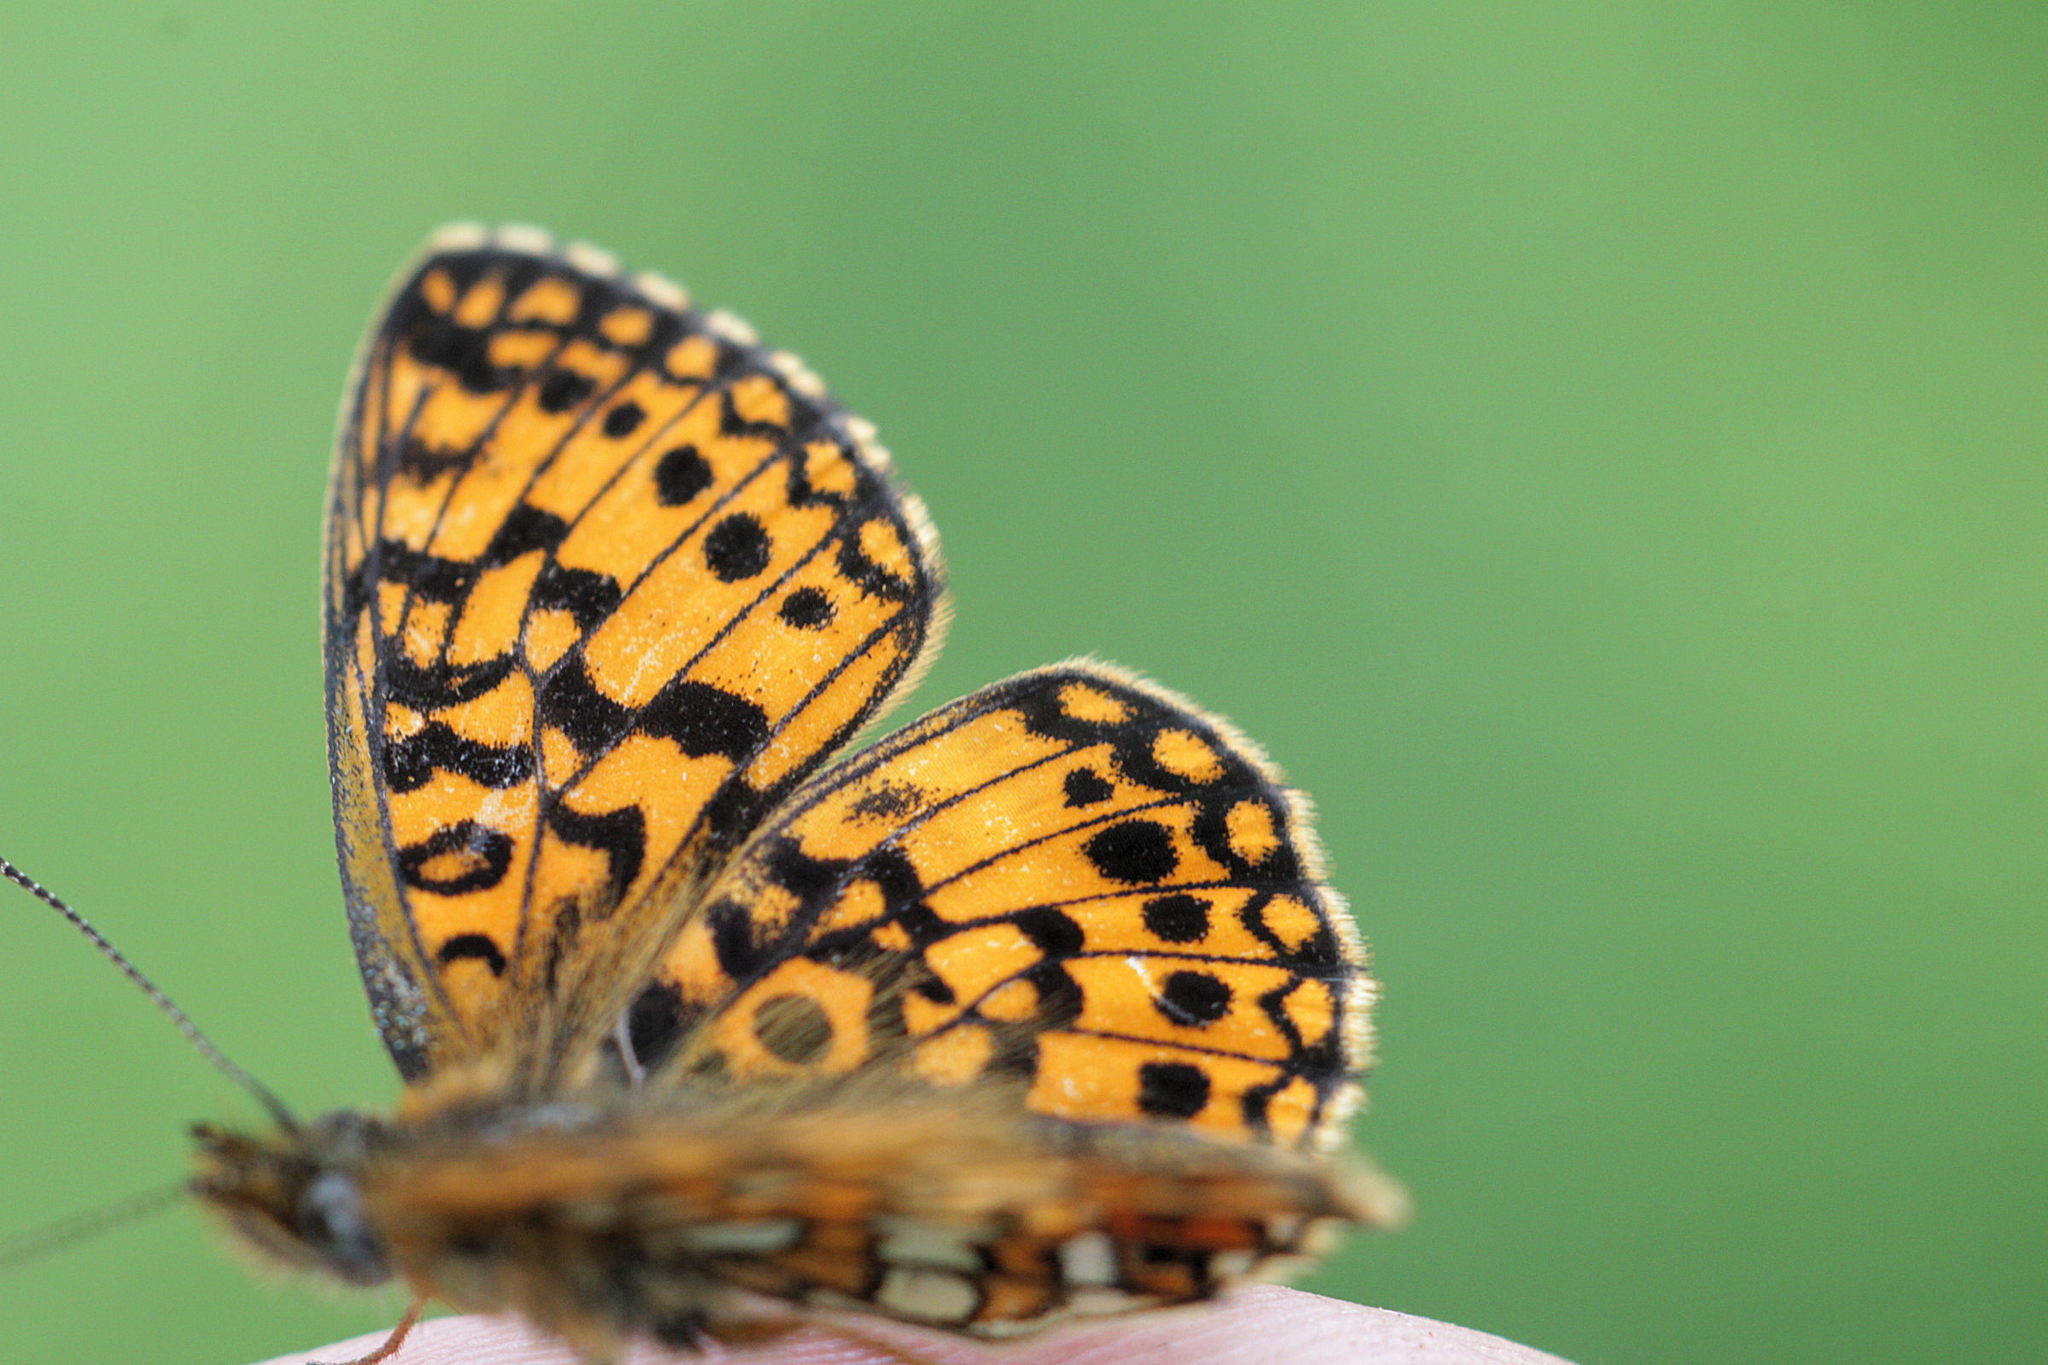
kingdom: Animalia
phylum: Arthropoda
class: Insecta
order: Lepidoptera
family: Nymphalidae
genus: Boloria
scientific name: Boloria selene
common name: Small pearl-bordered fritillary
